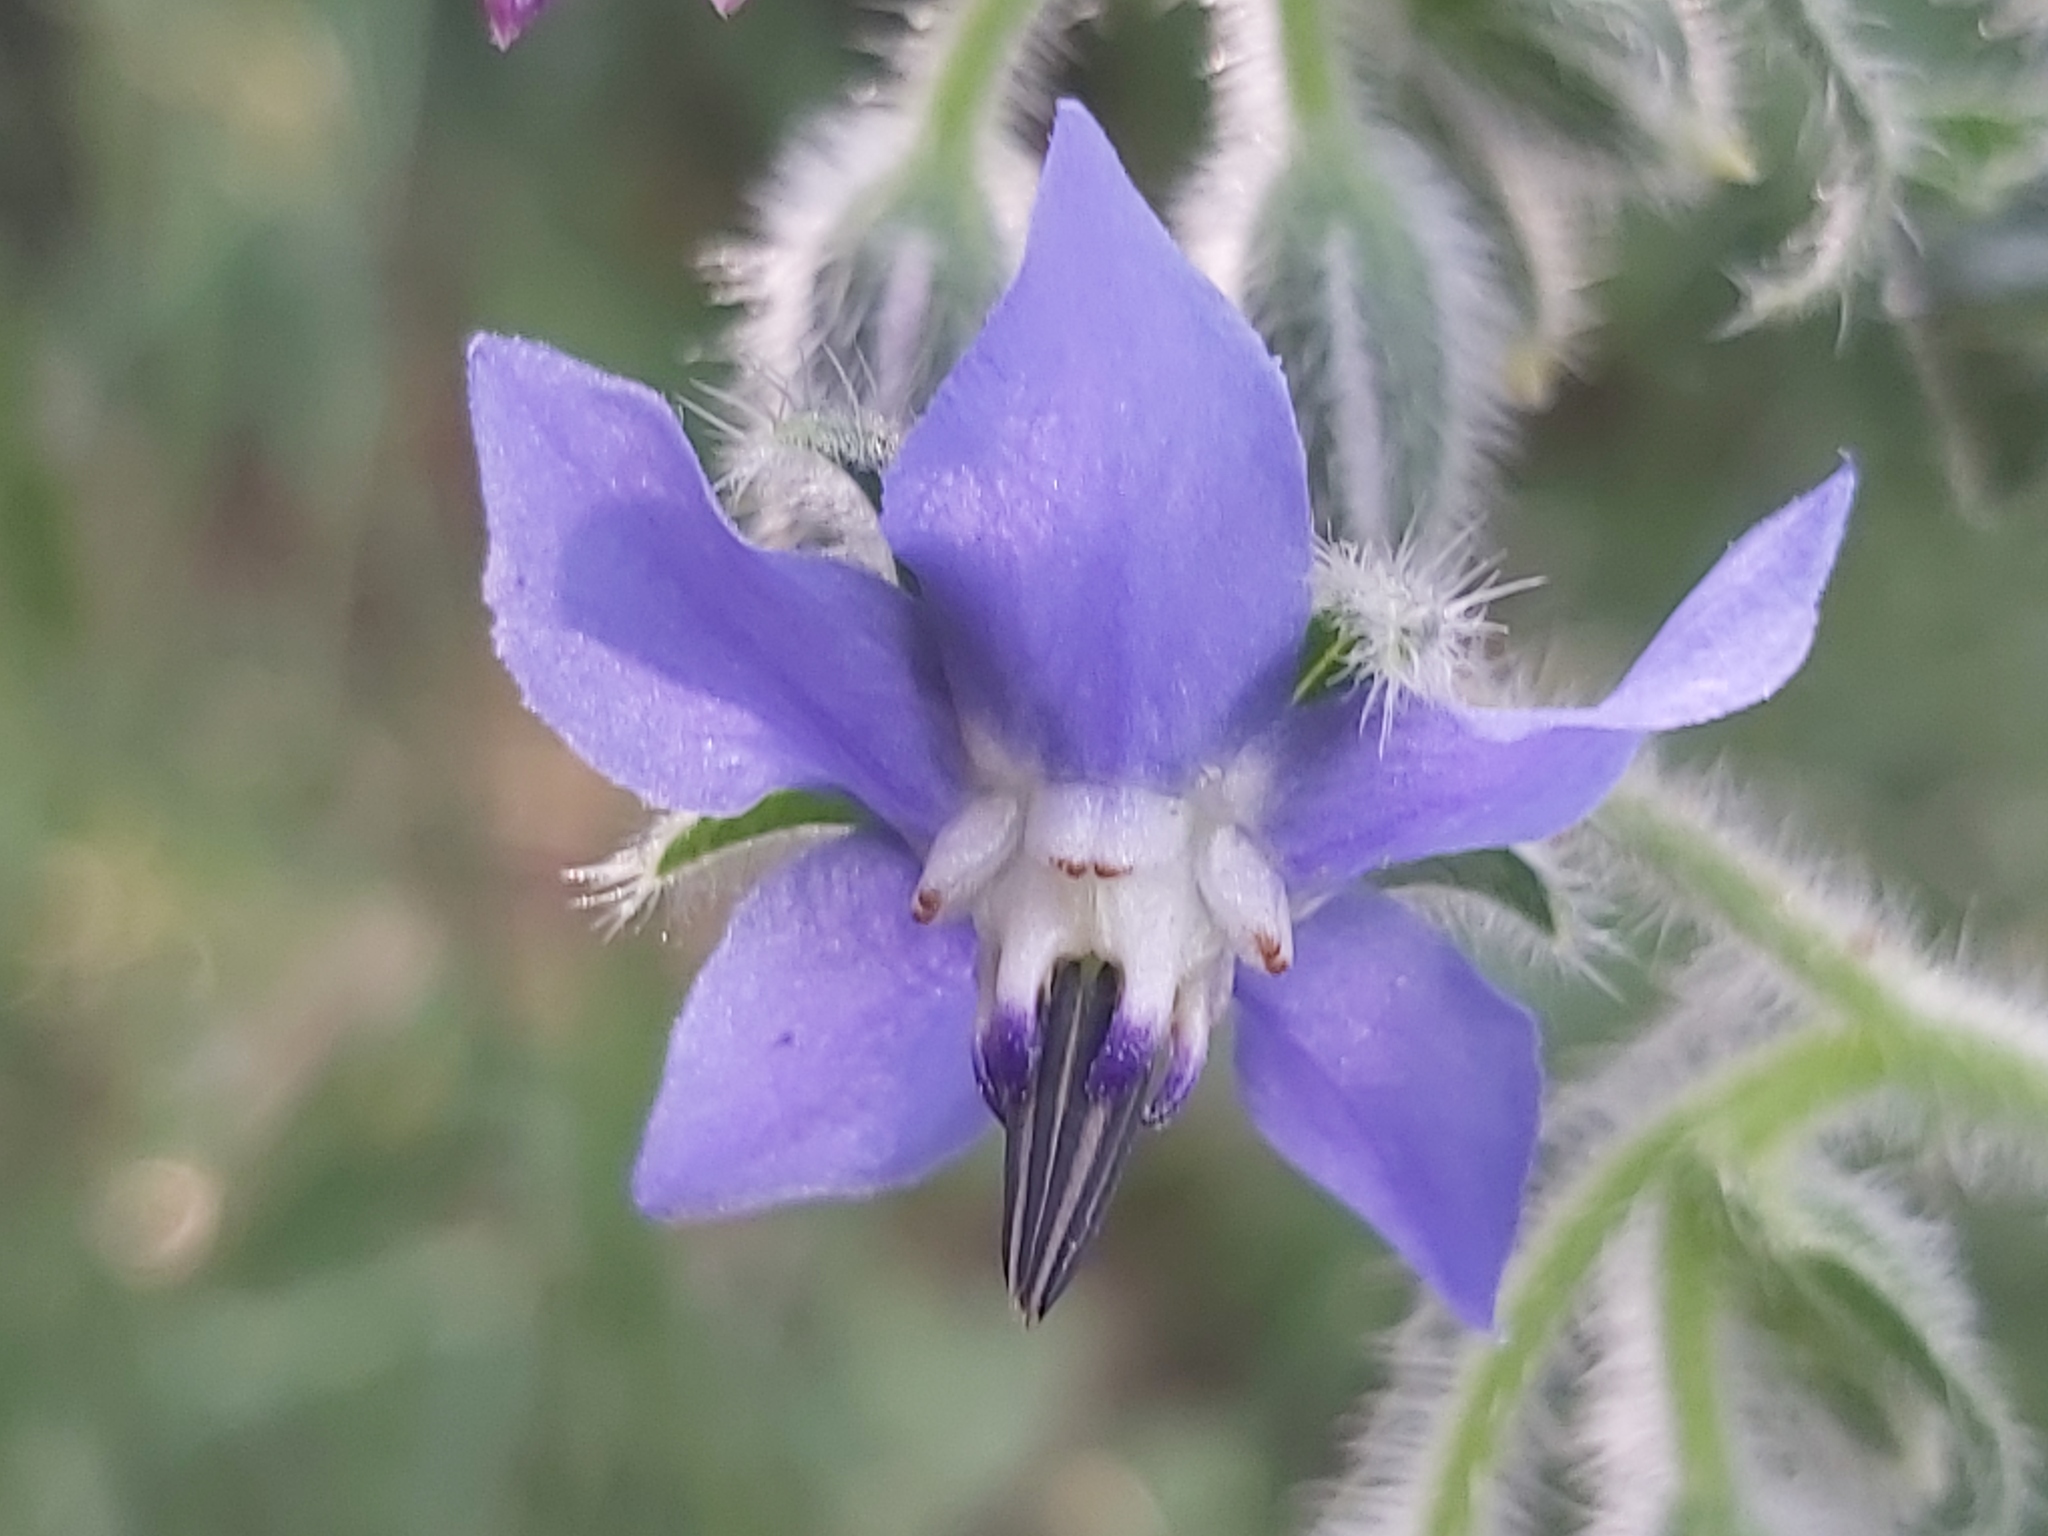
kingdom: Plantae
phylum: Tracheophyta
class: Magnoliopsida
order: Boraginales
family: Boraginaceae
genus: Borago
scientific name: Borago officinalis
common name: Borage
